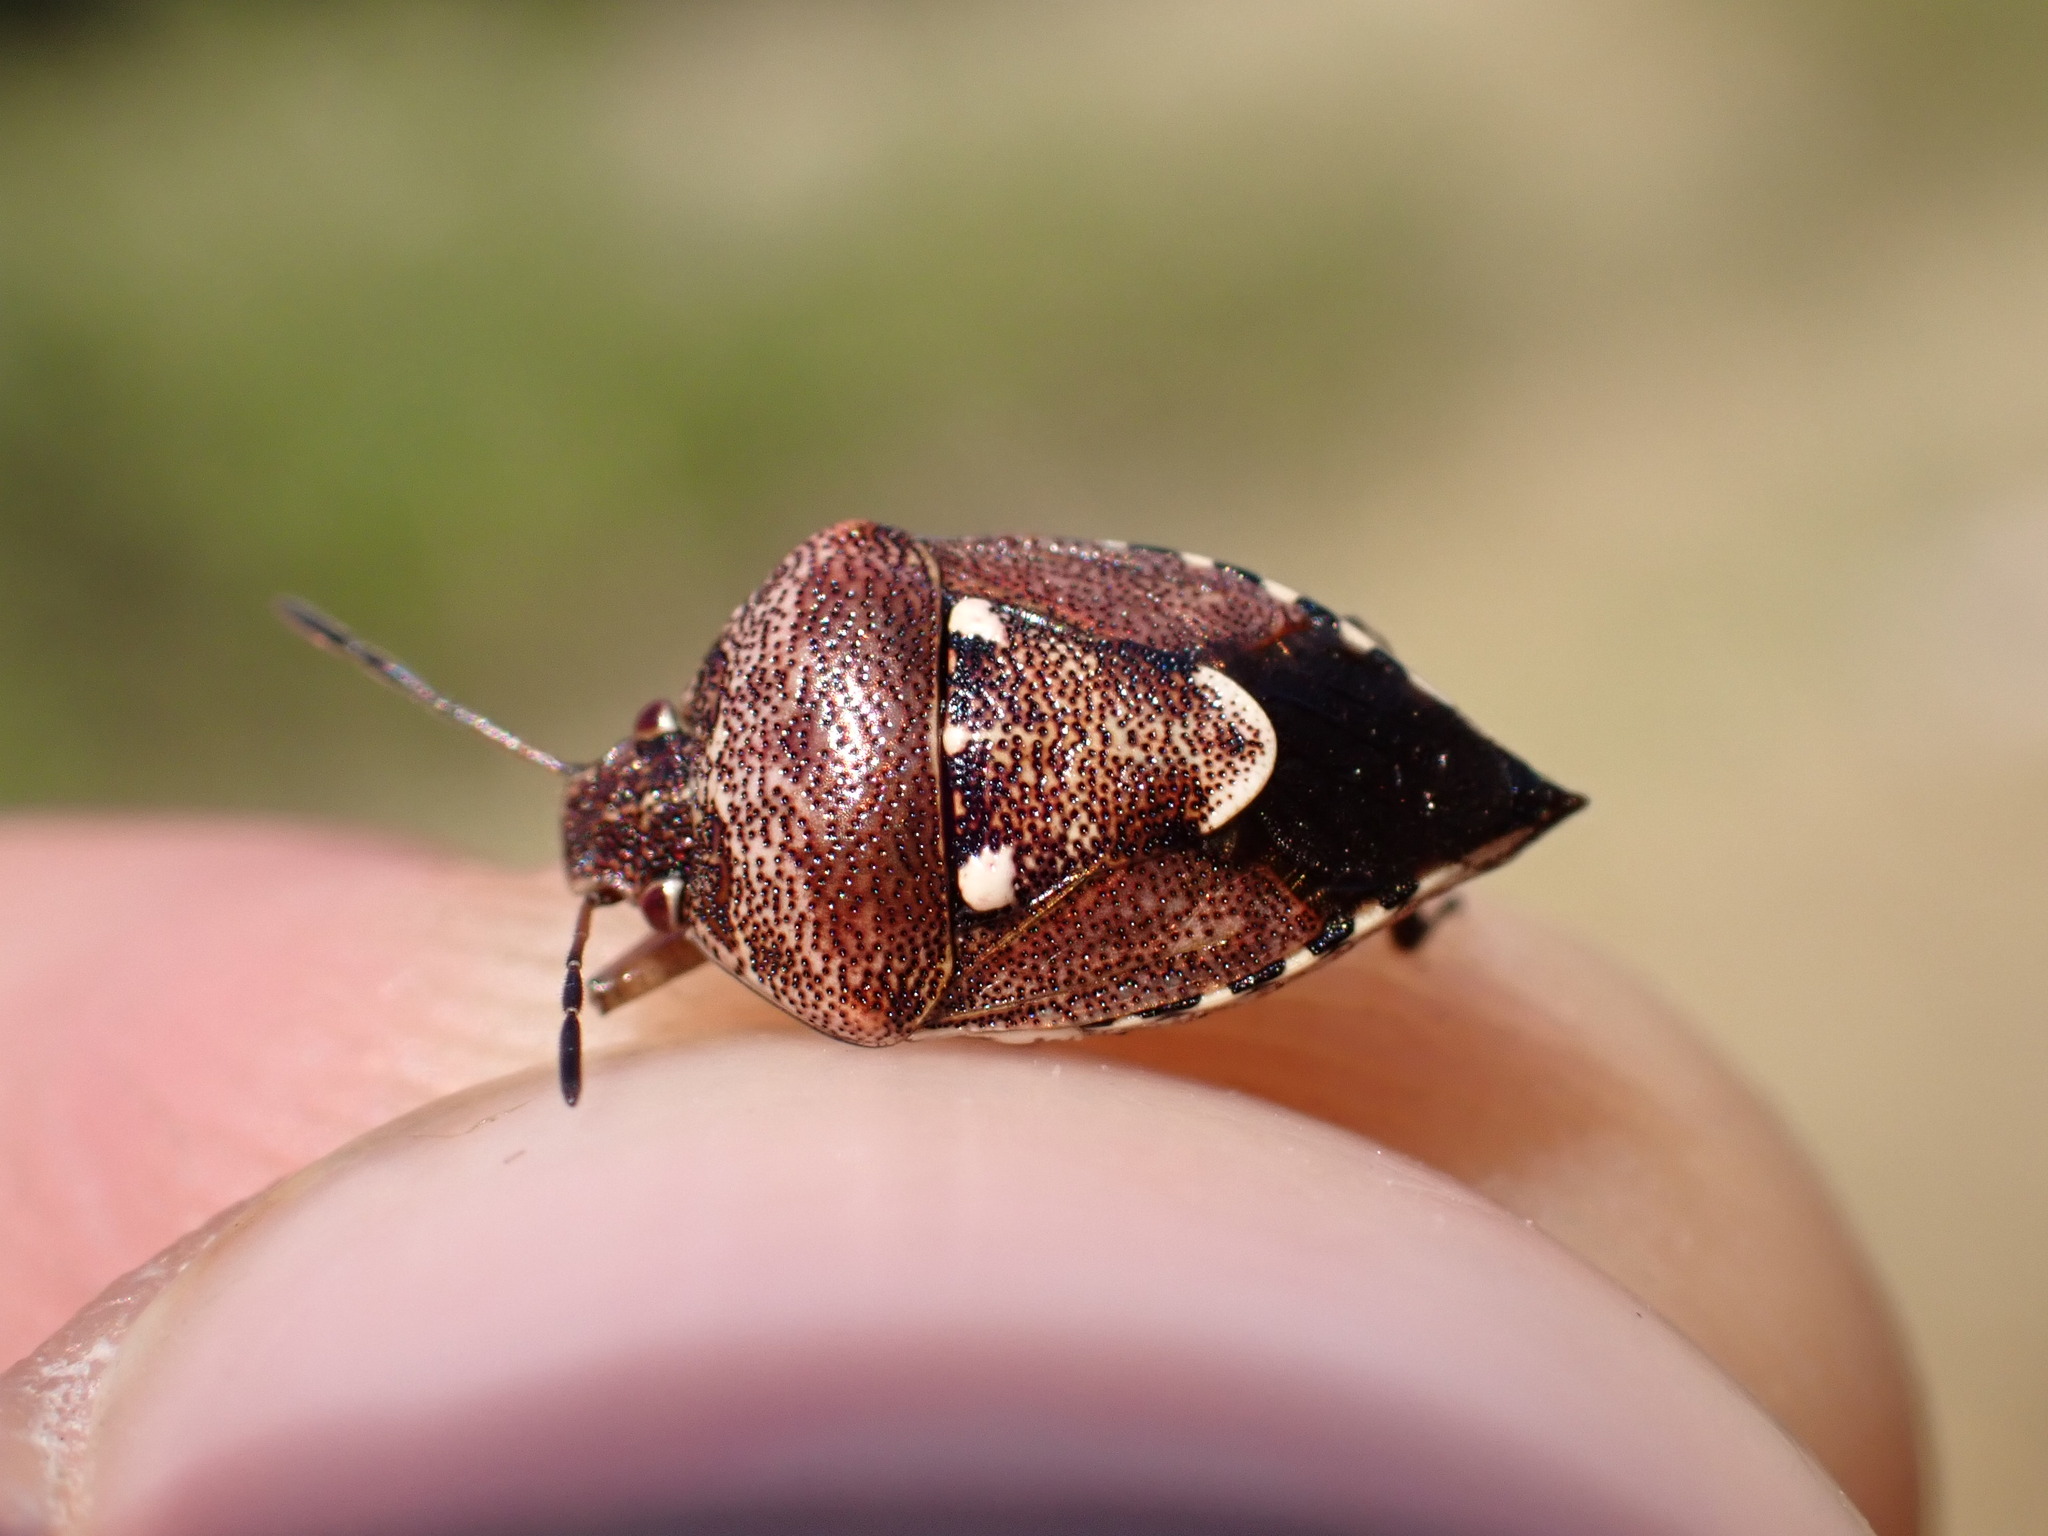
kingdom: Animalia
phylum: Arthropoda
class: Insecta
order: Hemiptera
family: Pentatomidae
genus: Stagonomus
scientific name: Stagonomus amoenus
